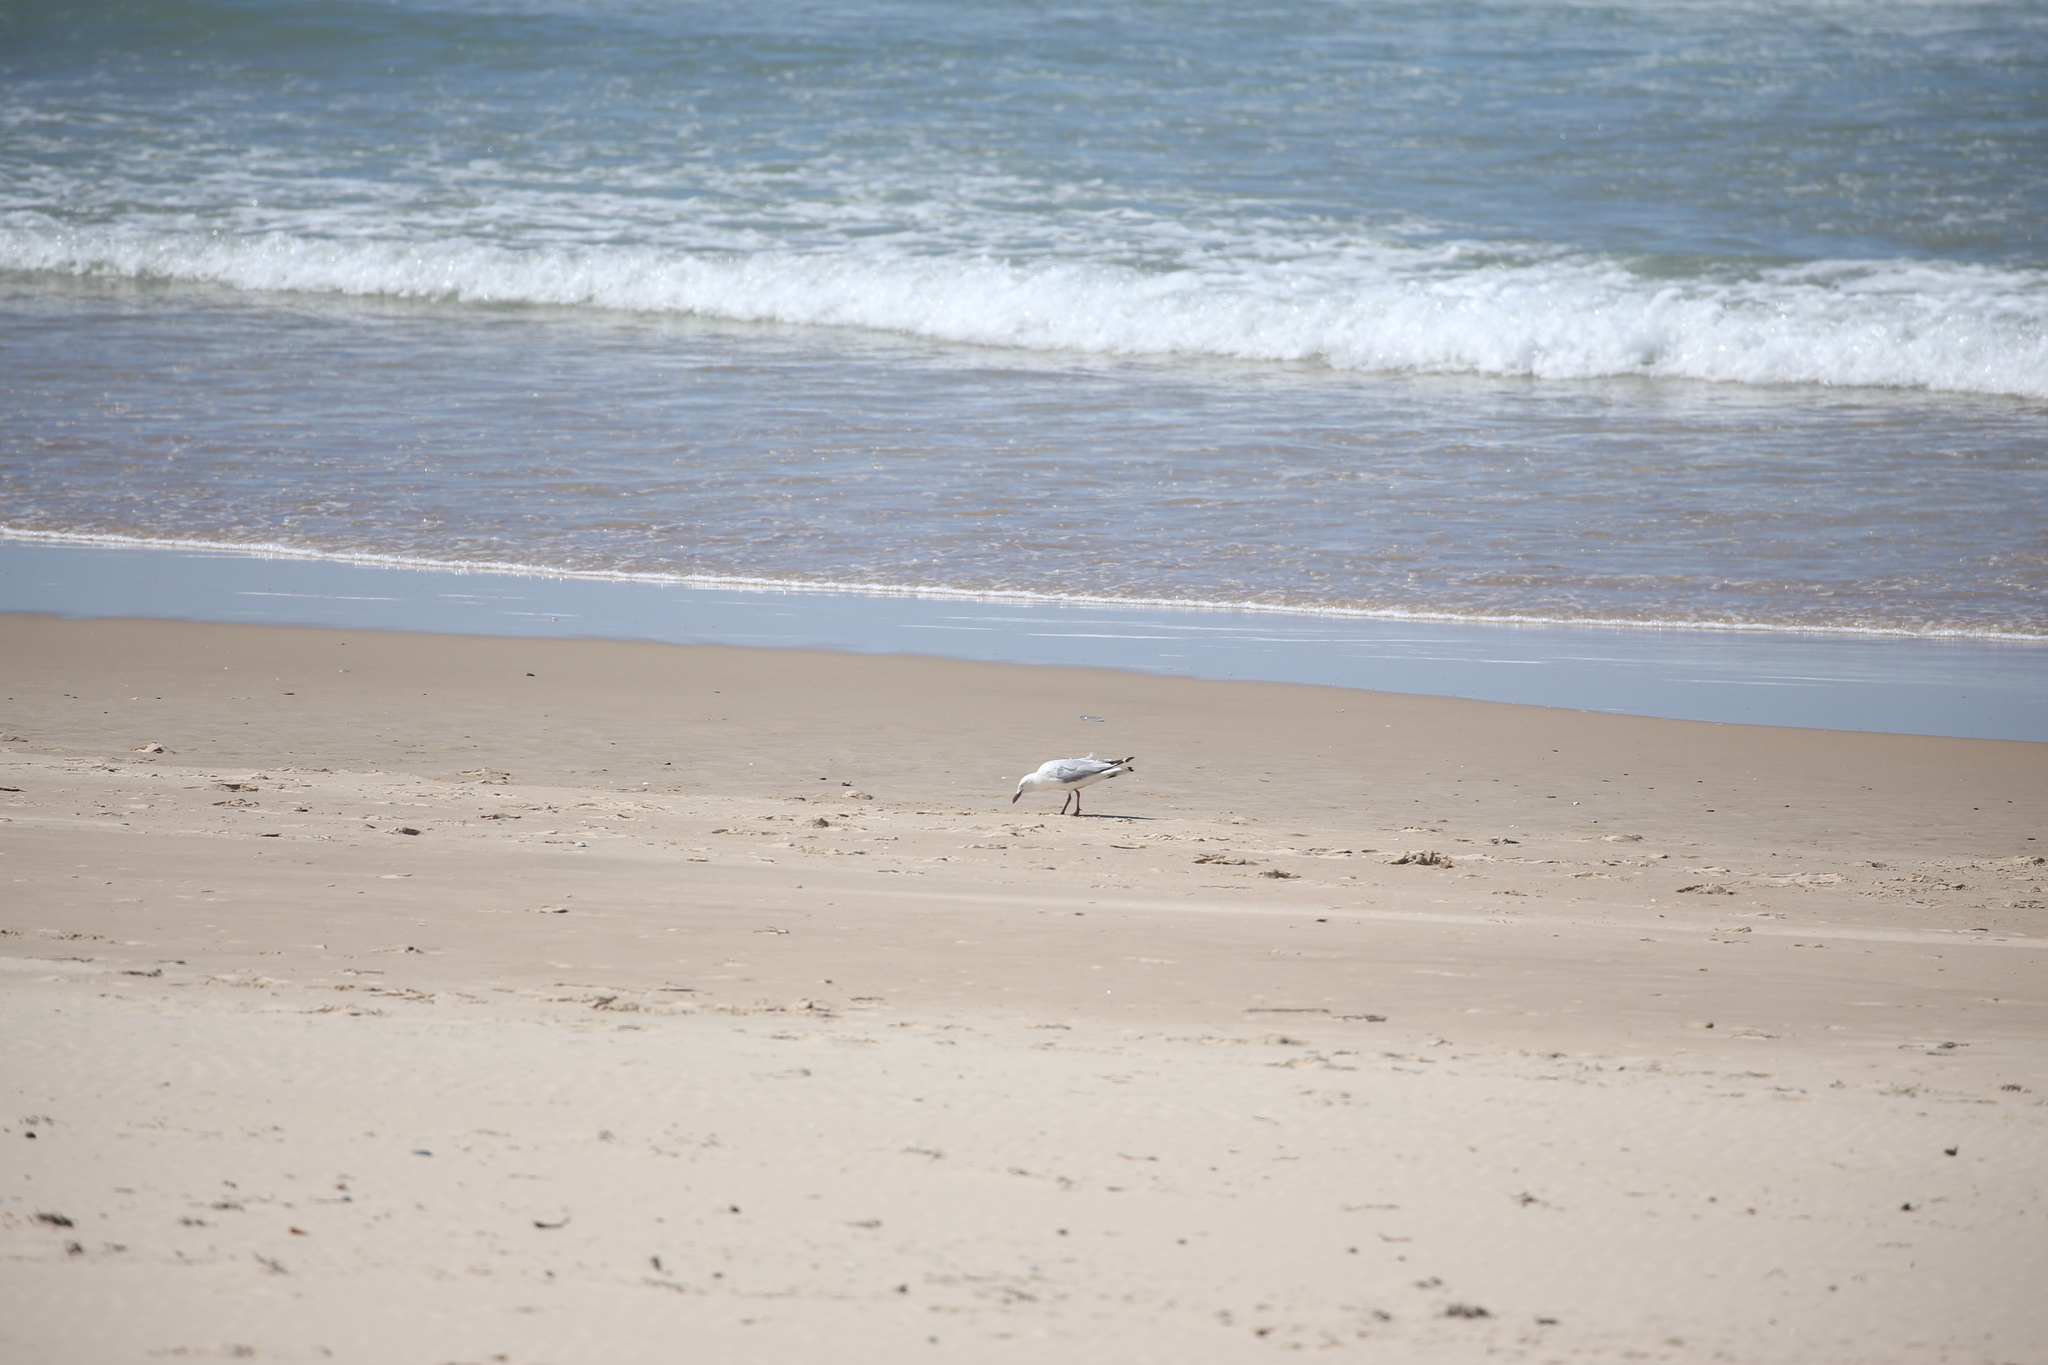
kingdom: Animalia
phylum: Chordata
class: Aves
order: Charadriiformes
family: Laridae
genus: Chroicocephalus
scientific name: Chroicocephalus novaehollandiae
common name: Silver gull
